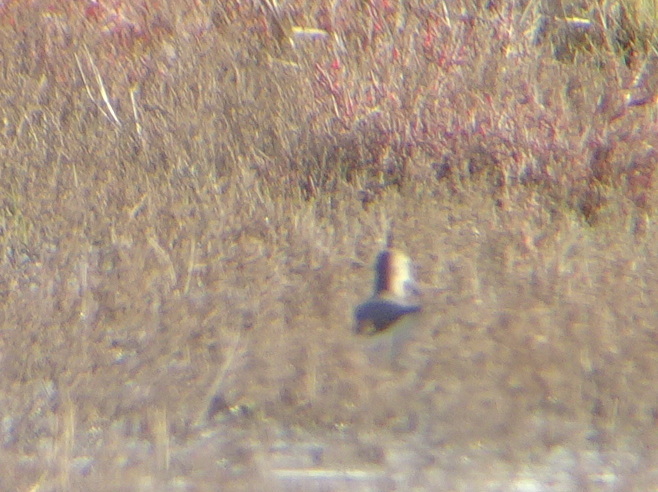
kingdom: Animalia
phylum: Chordata
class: Aves
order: Charadriiformes
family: Scolopacidae
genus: Tringa
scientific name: Tringa ochropus
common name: Green sandpiper
